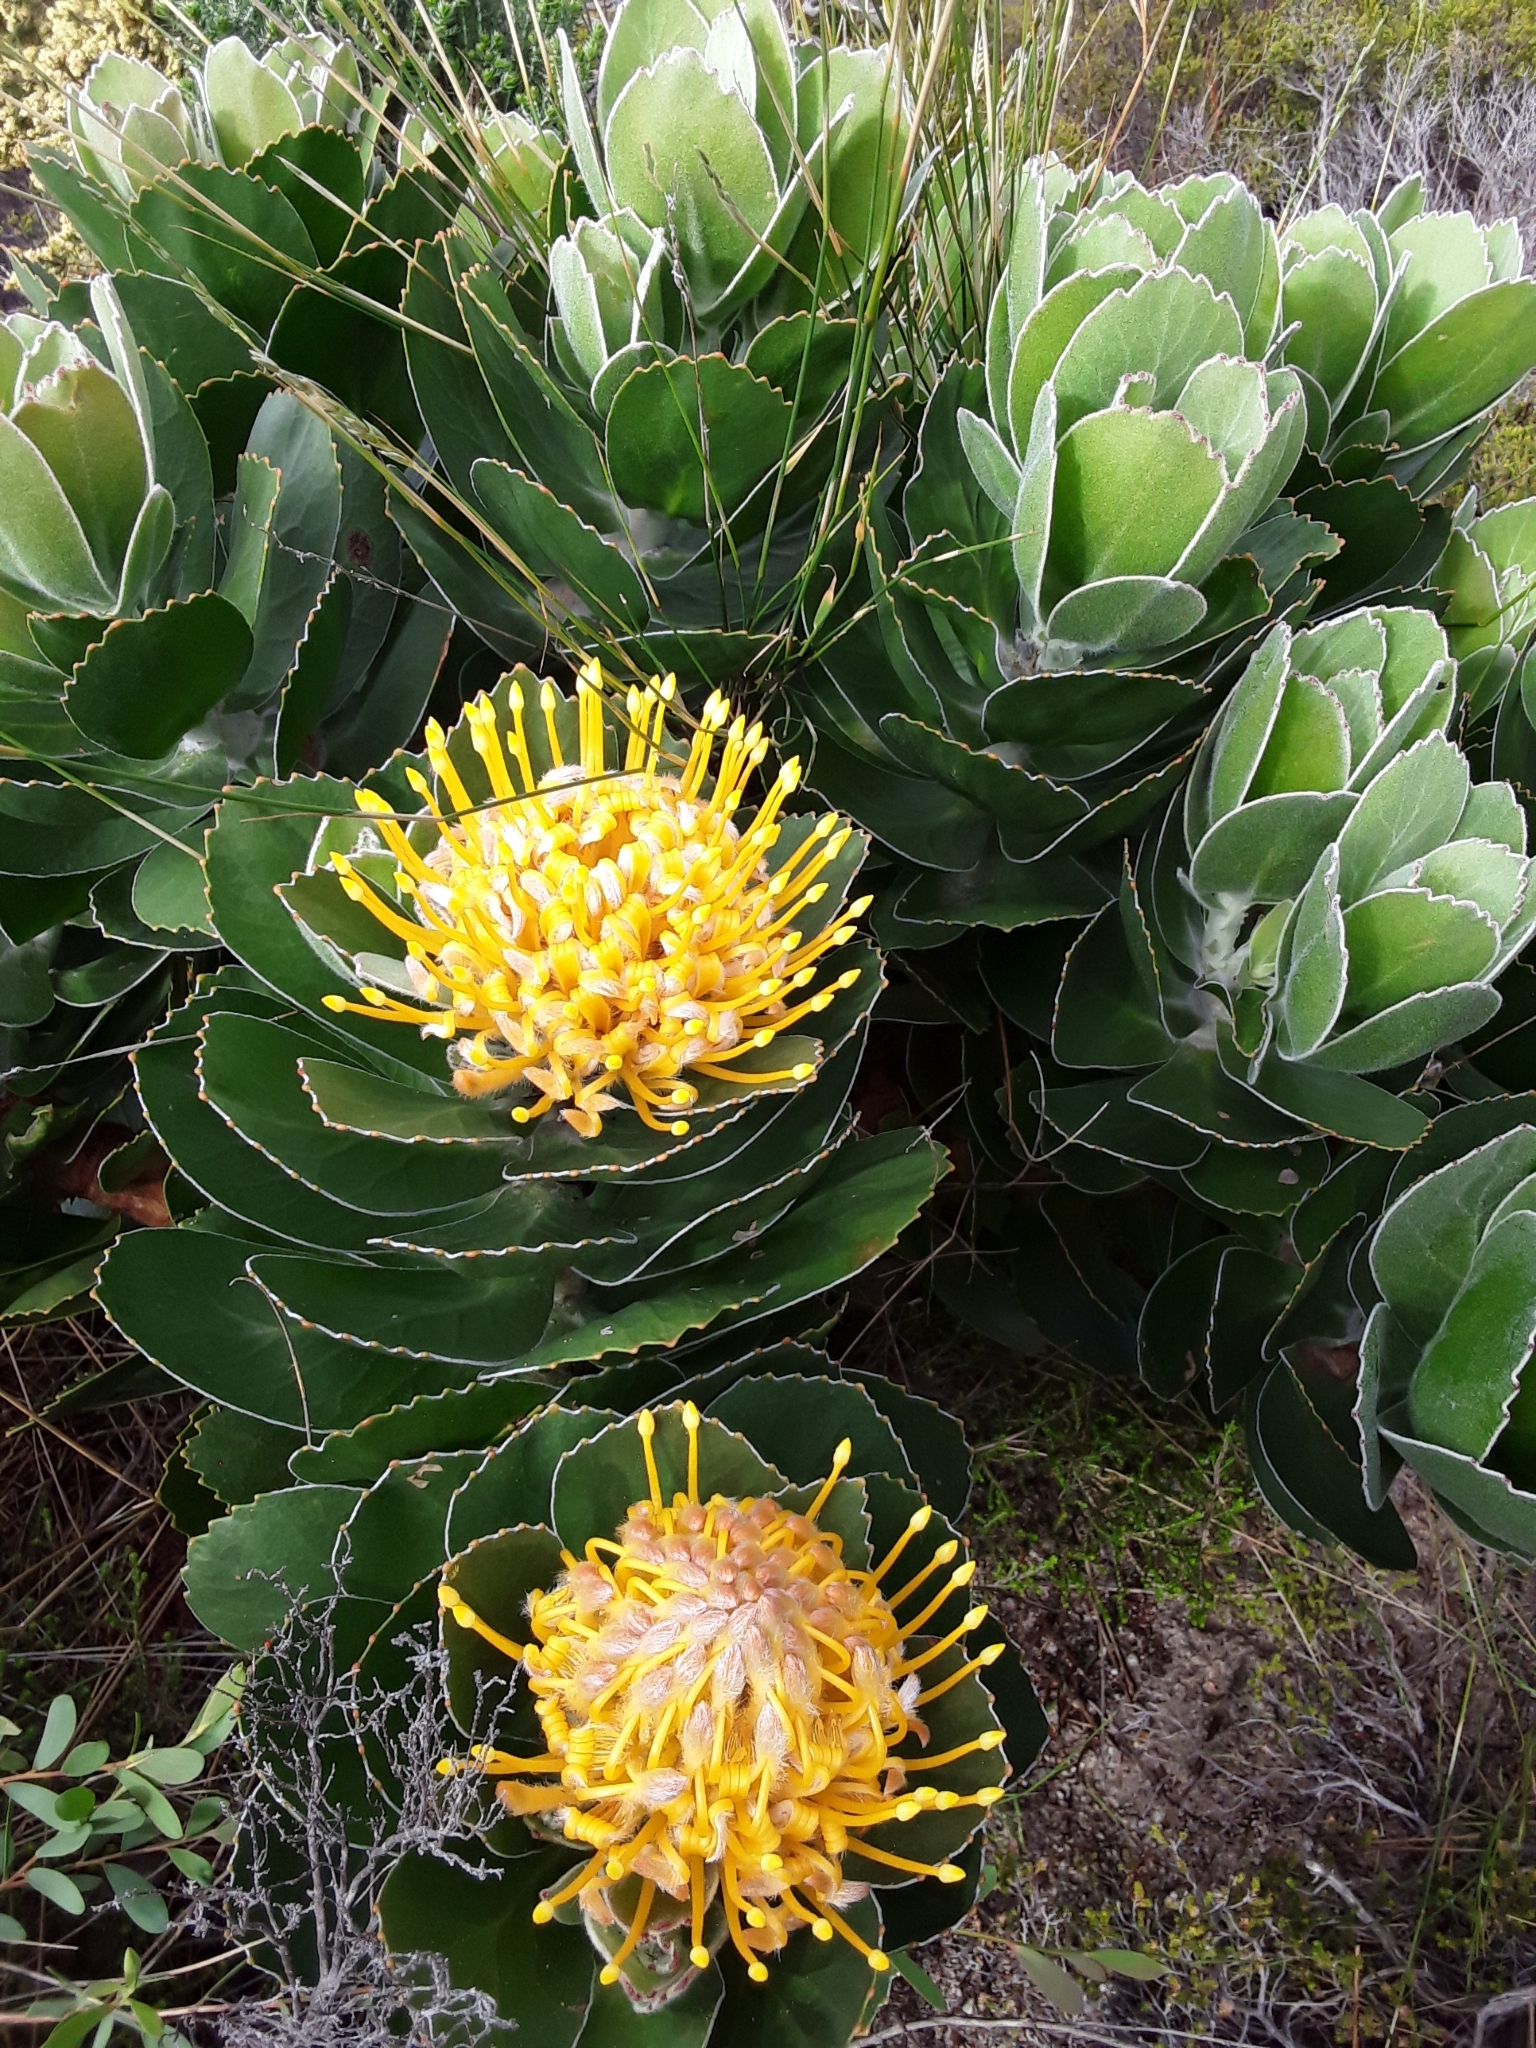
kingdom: Plantae
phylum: Tracheophyta
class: Magnoliopsida
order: Proteales
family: Proteaceae
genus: Leucospermum
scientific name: Leucospermum conocarpodendron
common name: Tree pincushion
